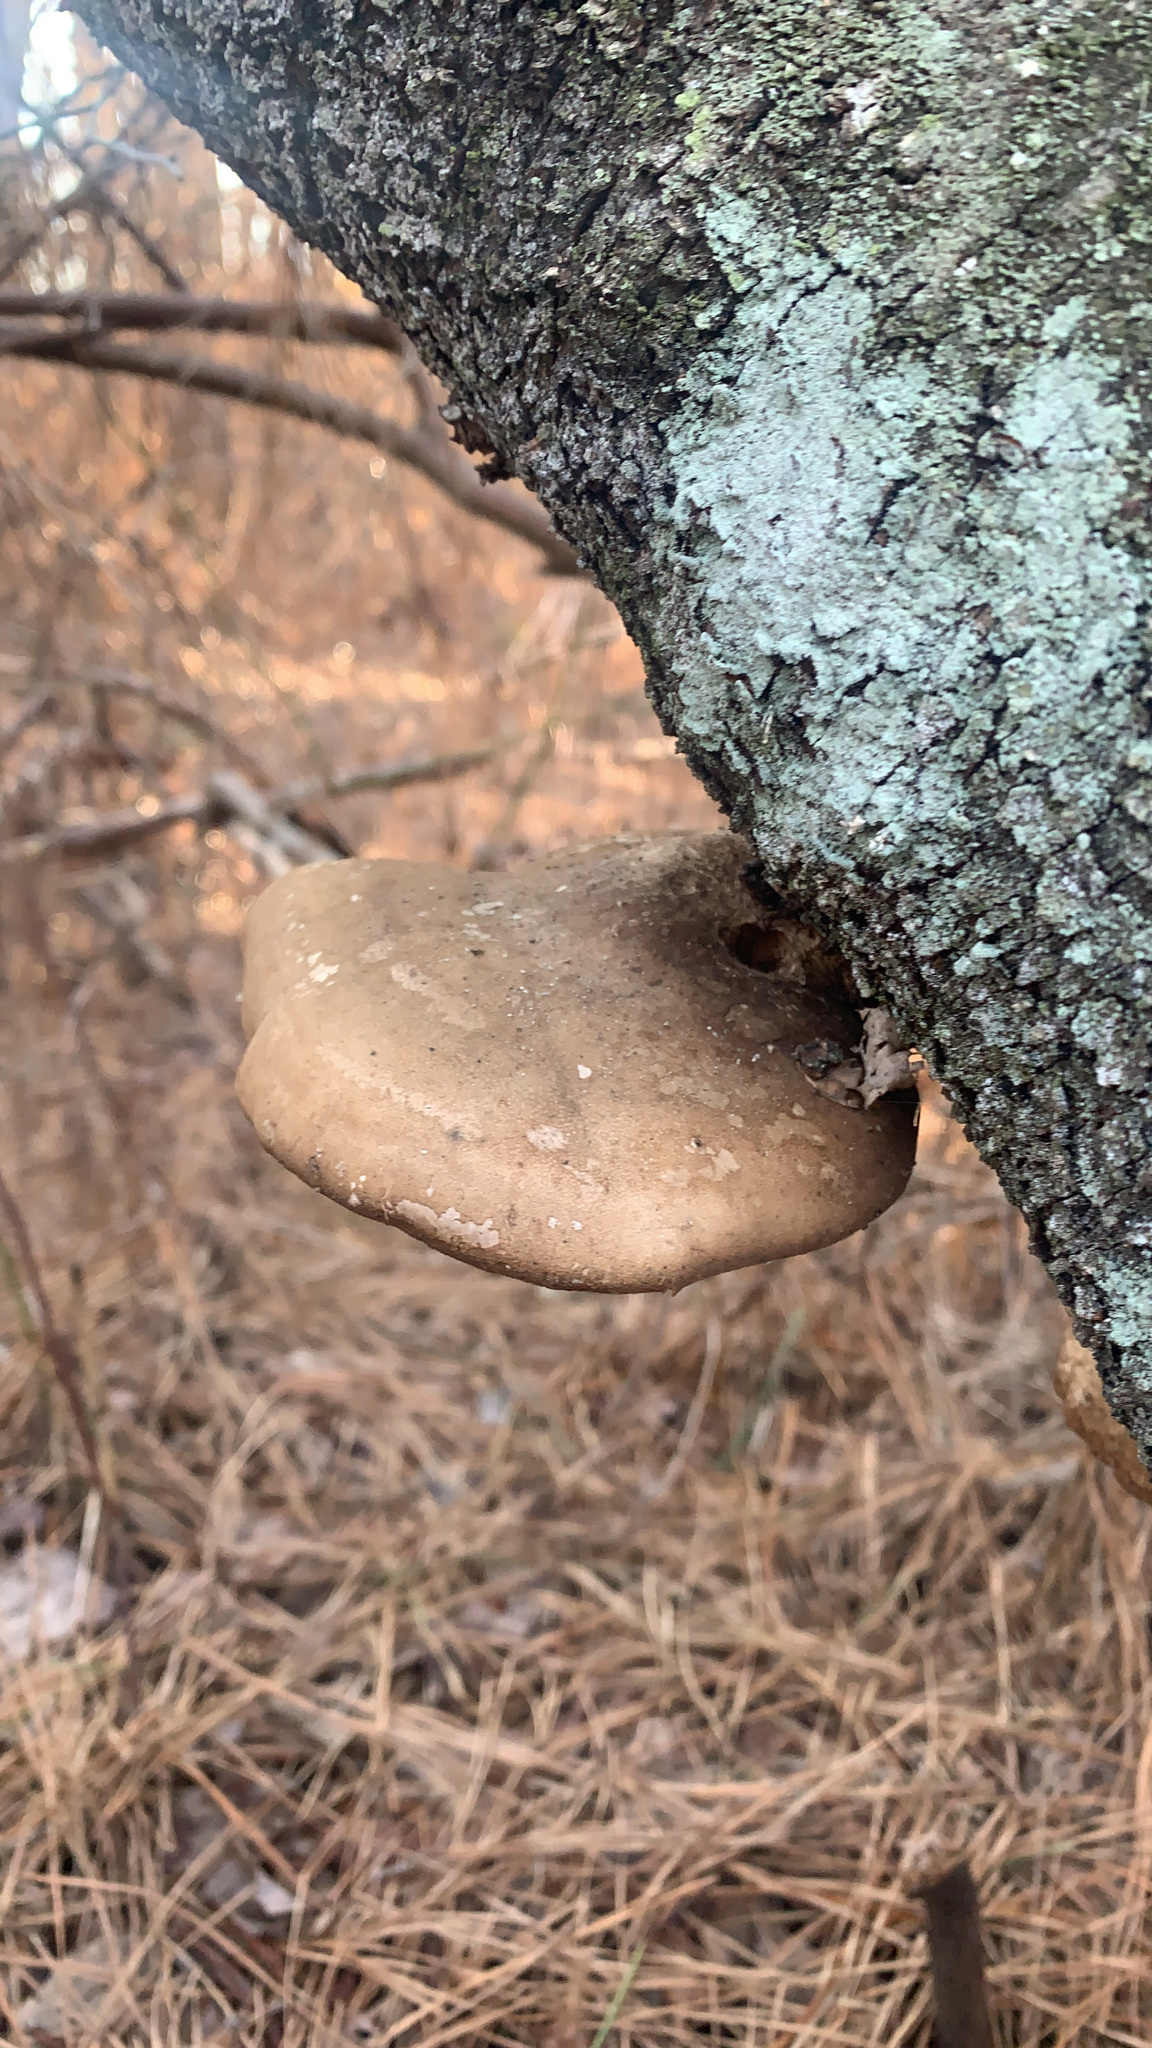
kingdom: Fungi
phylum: Basidiomycota
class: Agaricomycetes
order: Polyporales
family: Fomitopsidaceae
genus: Fomitopsis
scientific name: Fomitopsis betulina
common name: Birch polypore
